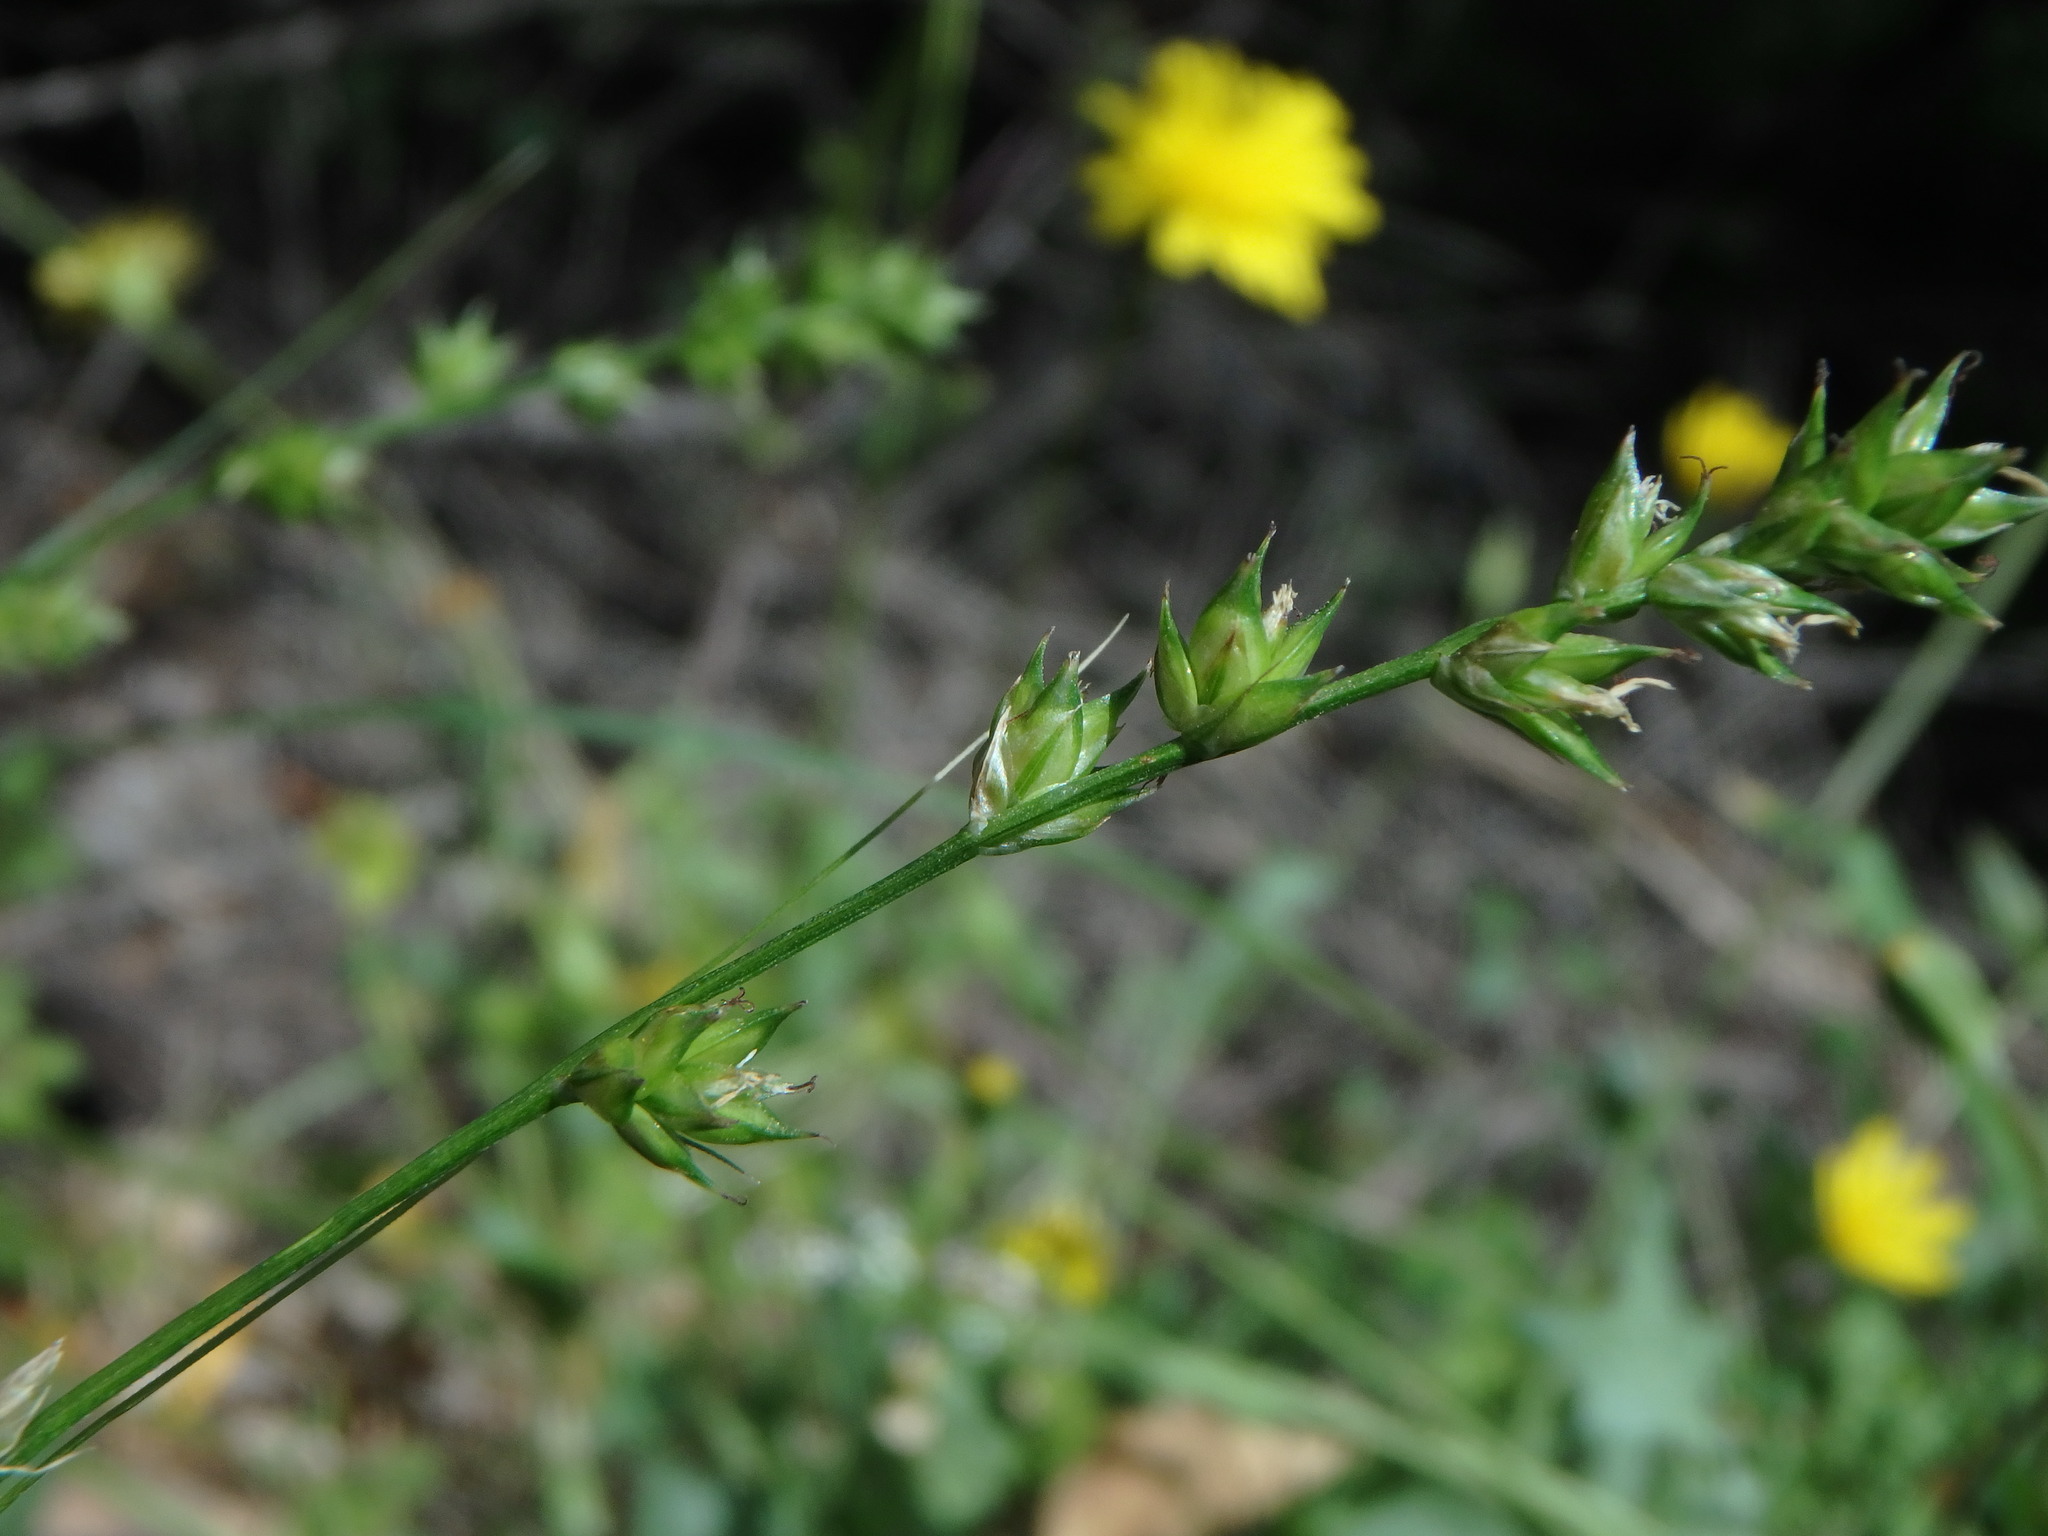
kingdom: Plantae
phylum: Tracheophyta
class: Liliopsida
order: Poales
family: Cyperaceae
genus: Carex
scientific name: Carex divulsa
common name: Grassland sedge
